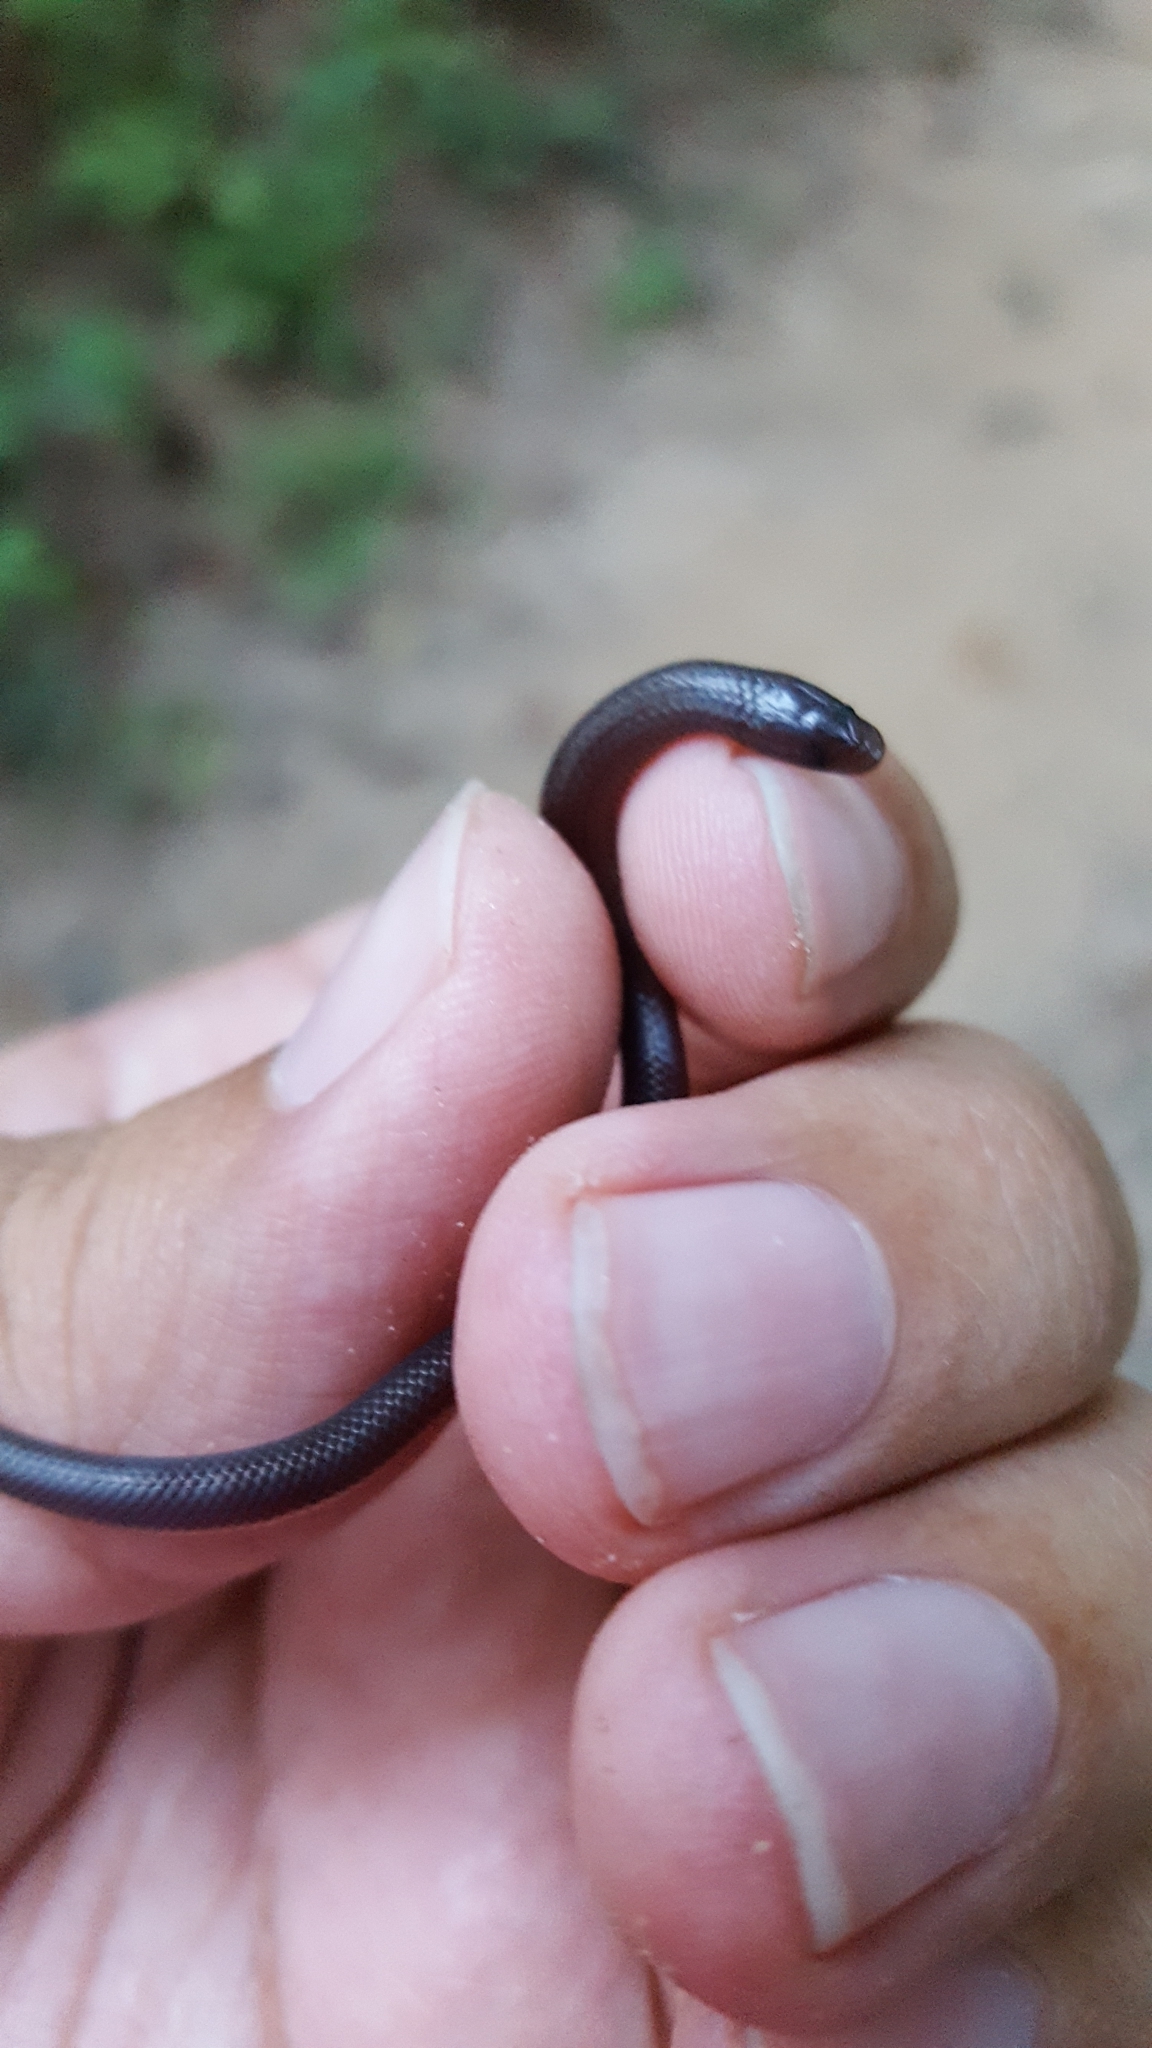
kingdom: Animalia
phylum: Chordata
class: Squamata
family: Colubridae
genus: Carphophis
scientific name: Carphophis amoenus
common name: Eastern worm snake
